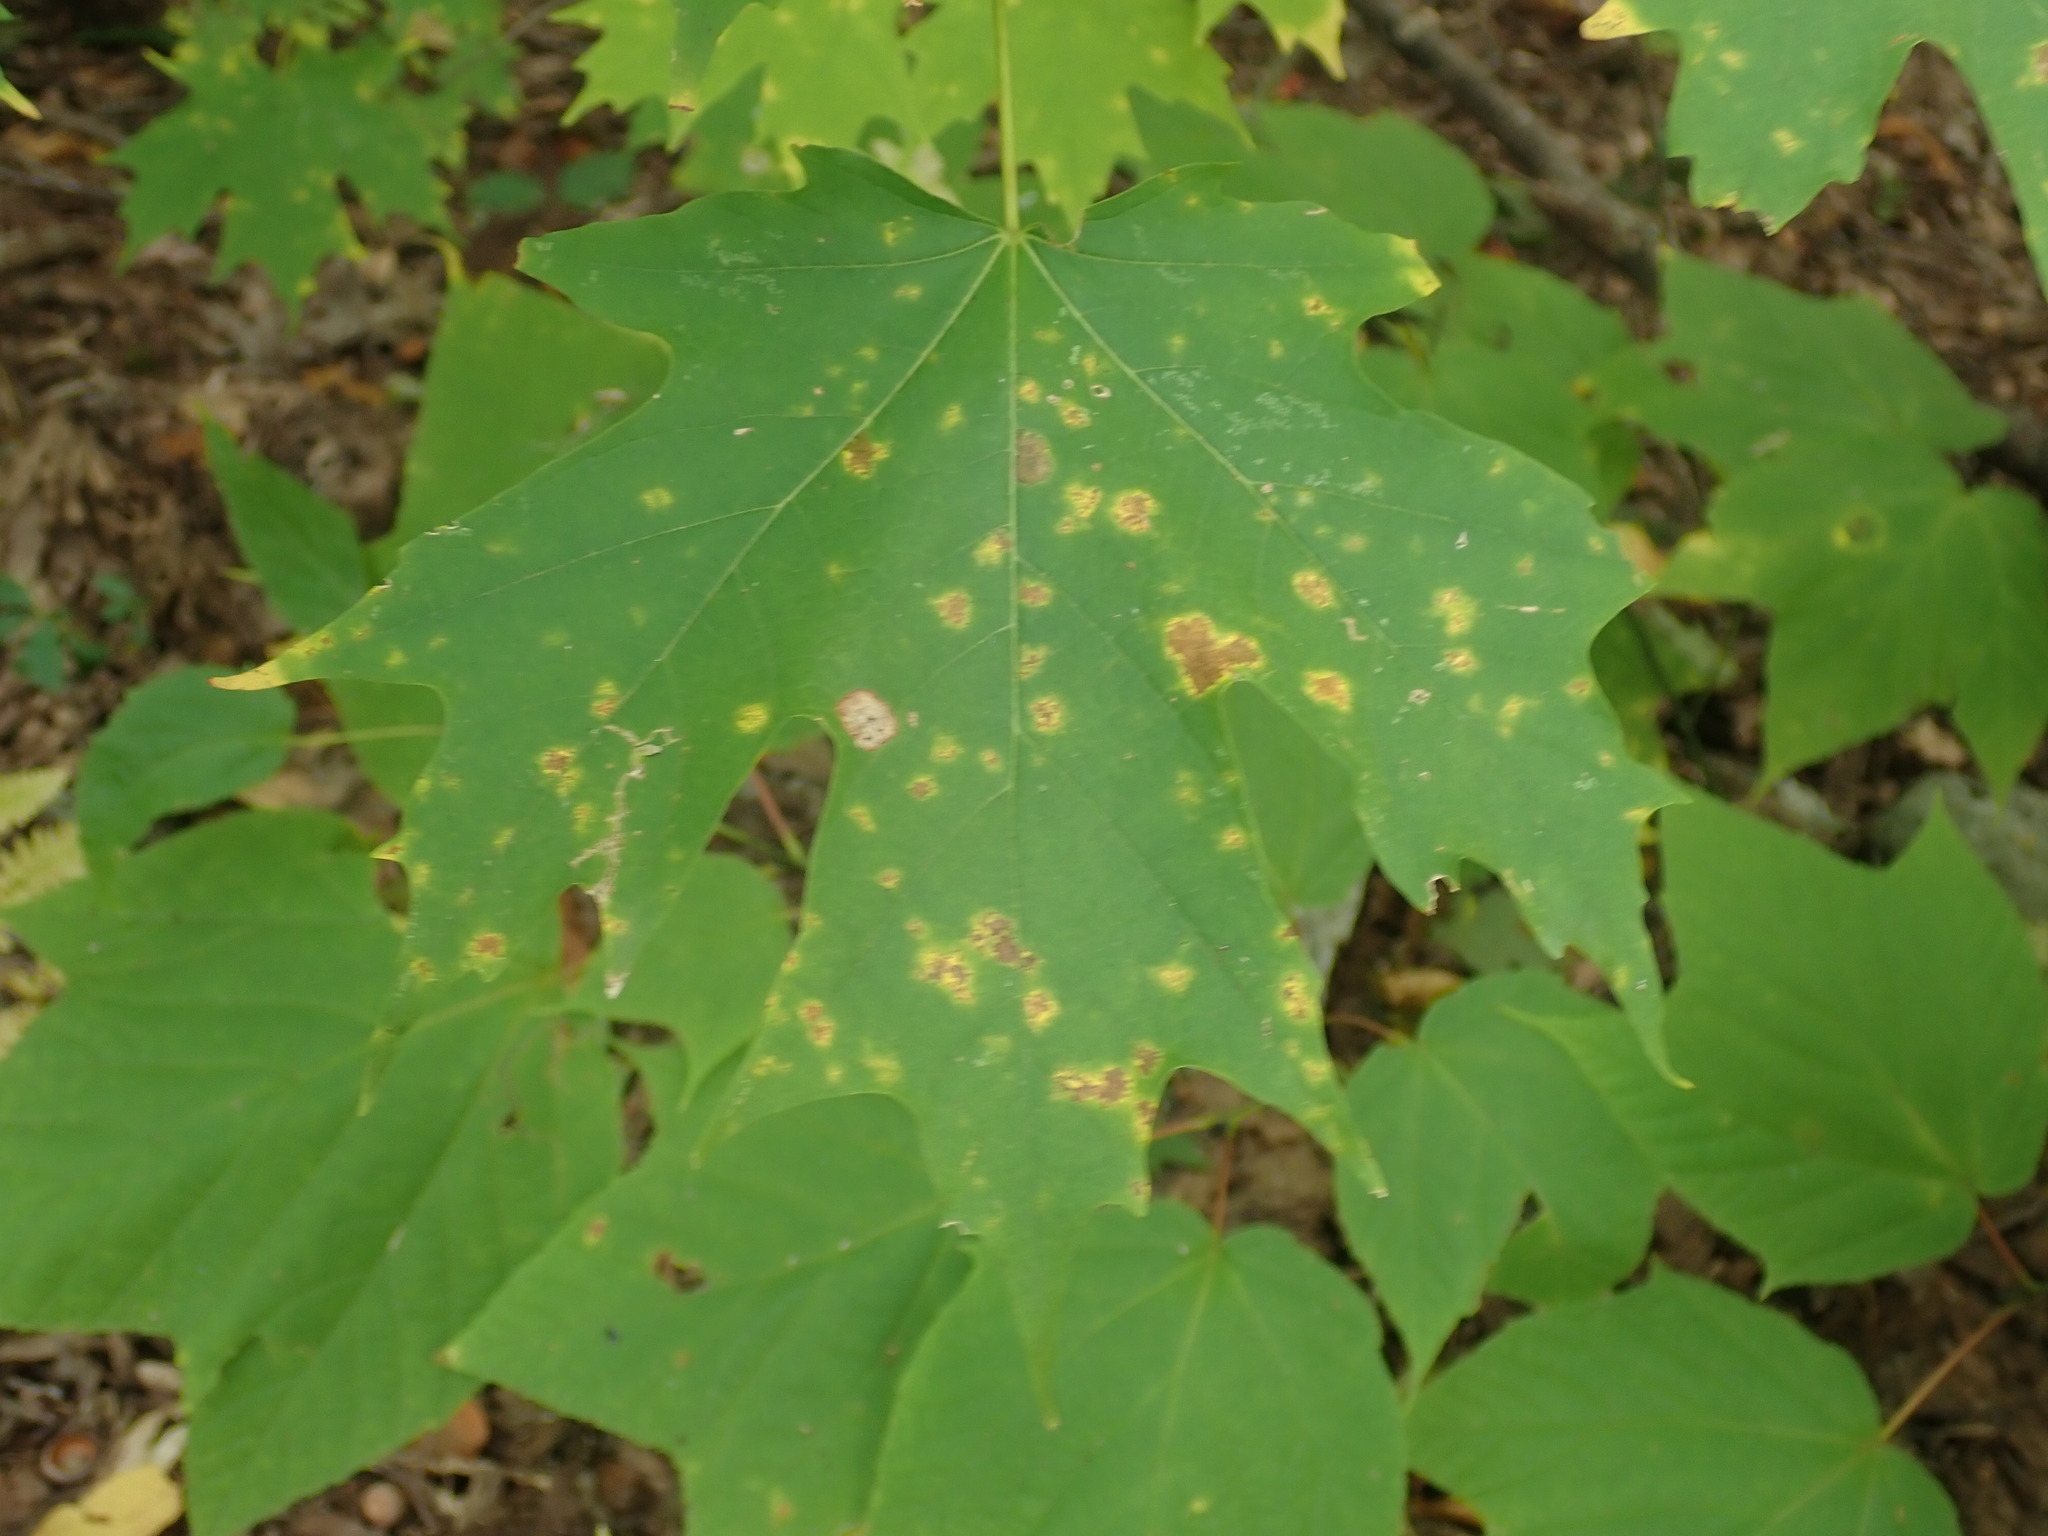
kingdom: Plantae
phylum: Tracheophyta
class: Magnoliopsida
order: Sapindales
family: Sapindaceae
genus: Acer
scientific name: Acer saccharum
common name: Sugar maple
